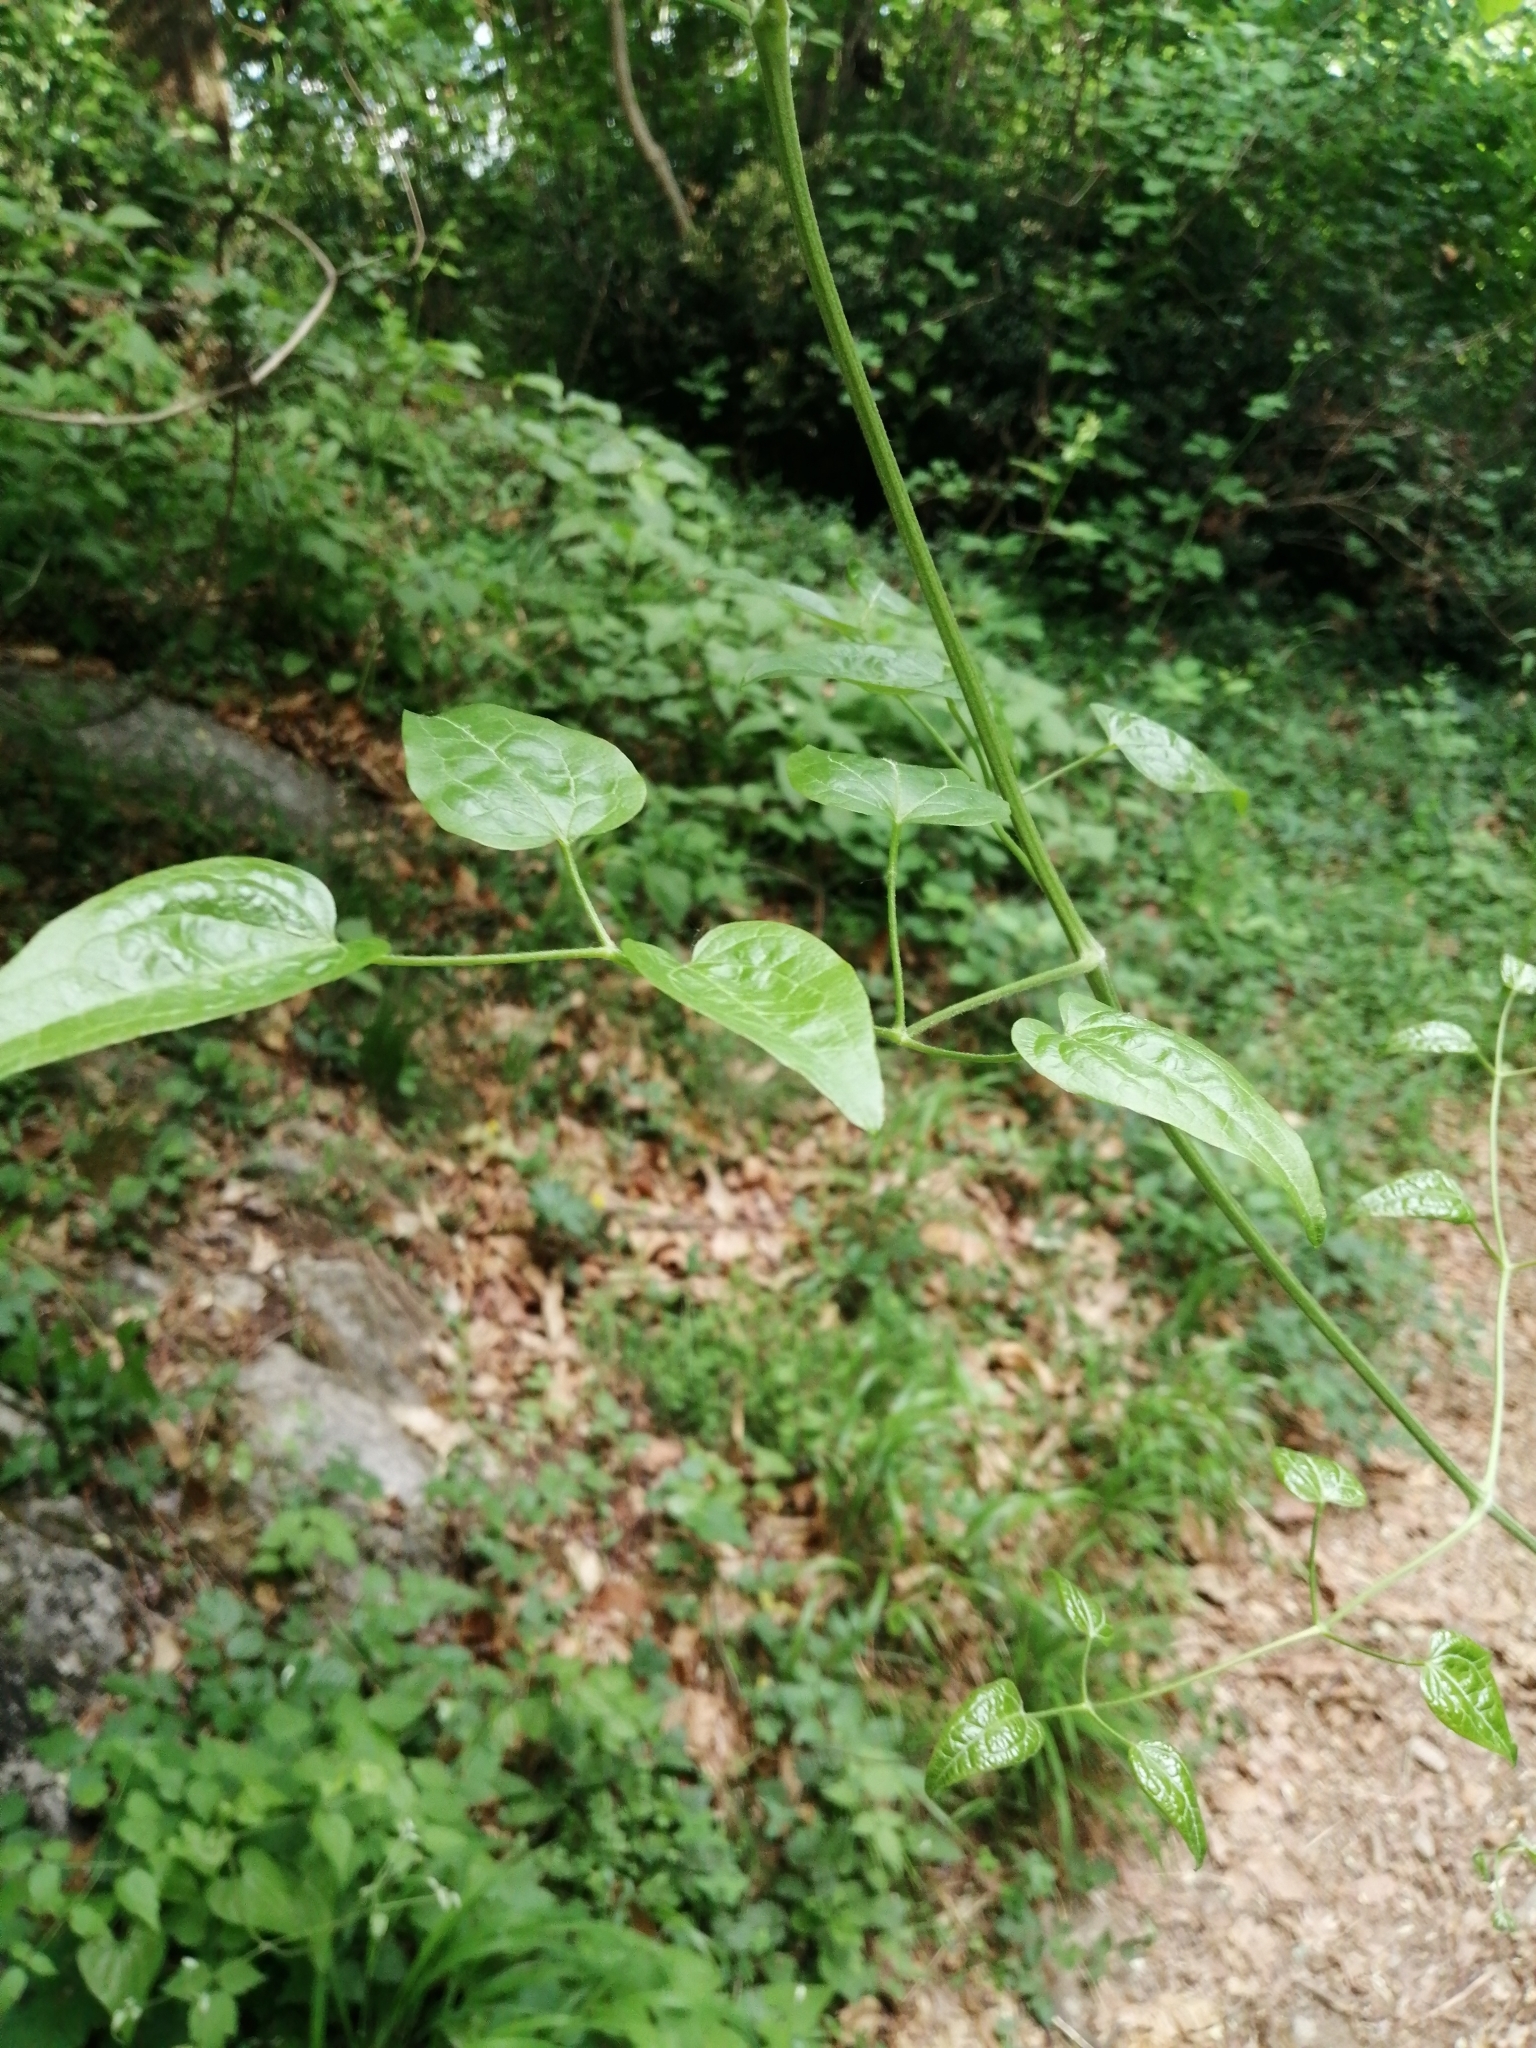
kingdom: Plantae
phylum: Tracheophyta
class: Magnoliopsida
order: Ranunculales
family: Ranunculaceae
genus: Clematis
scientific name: Clematis vitalba
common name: Evergreen clematis
